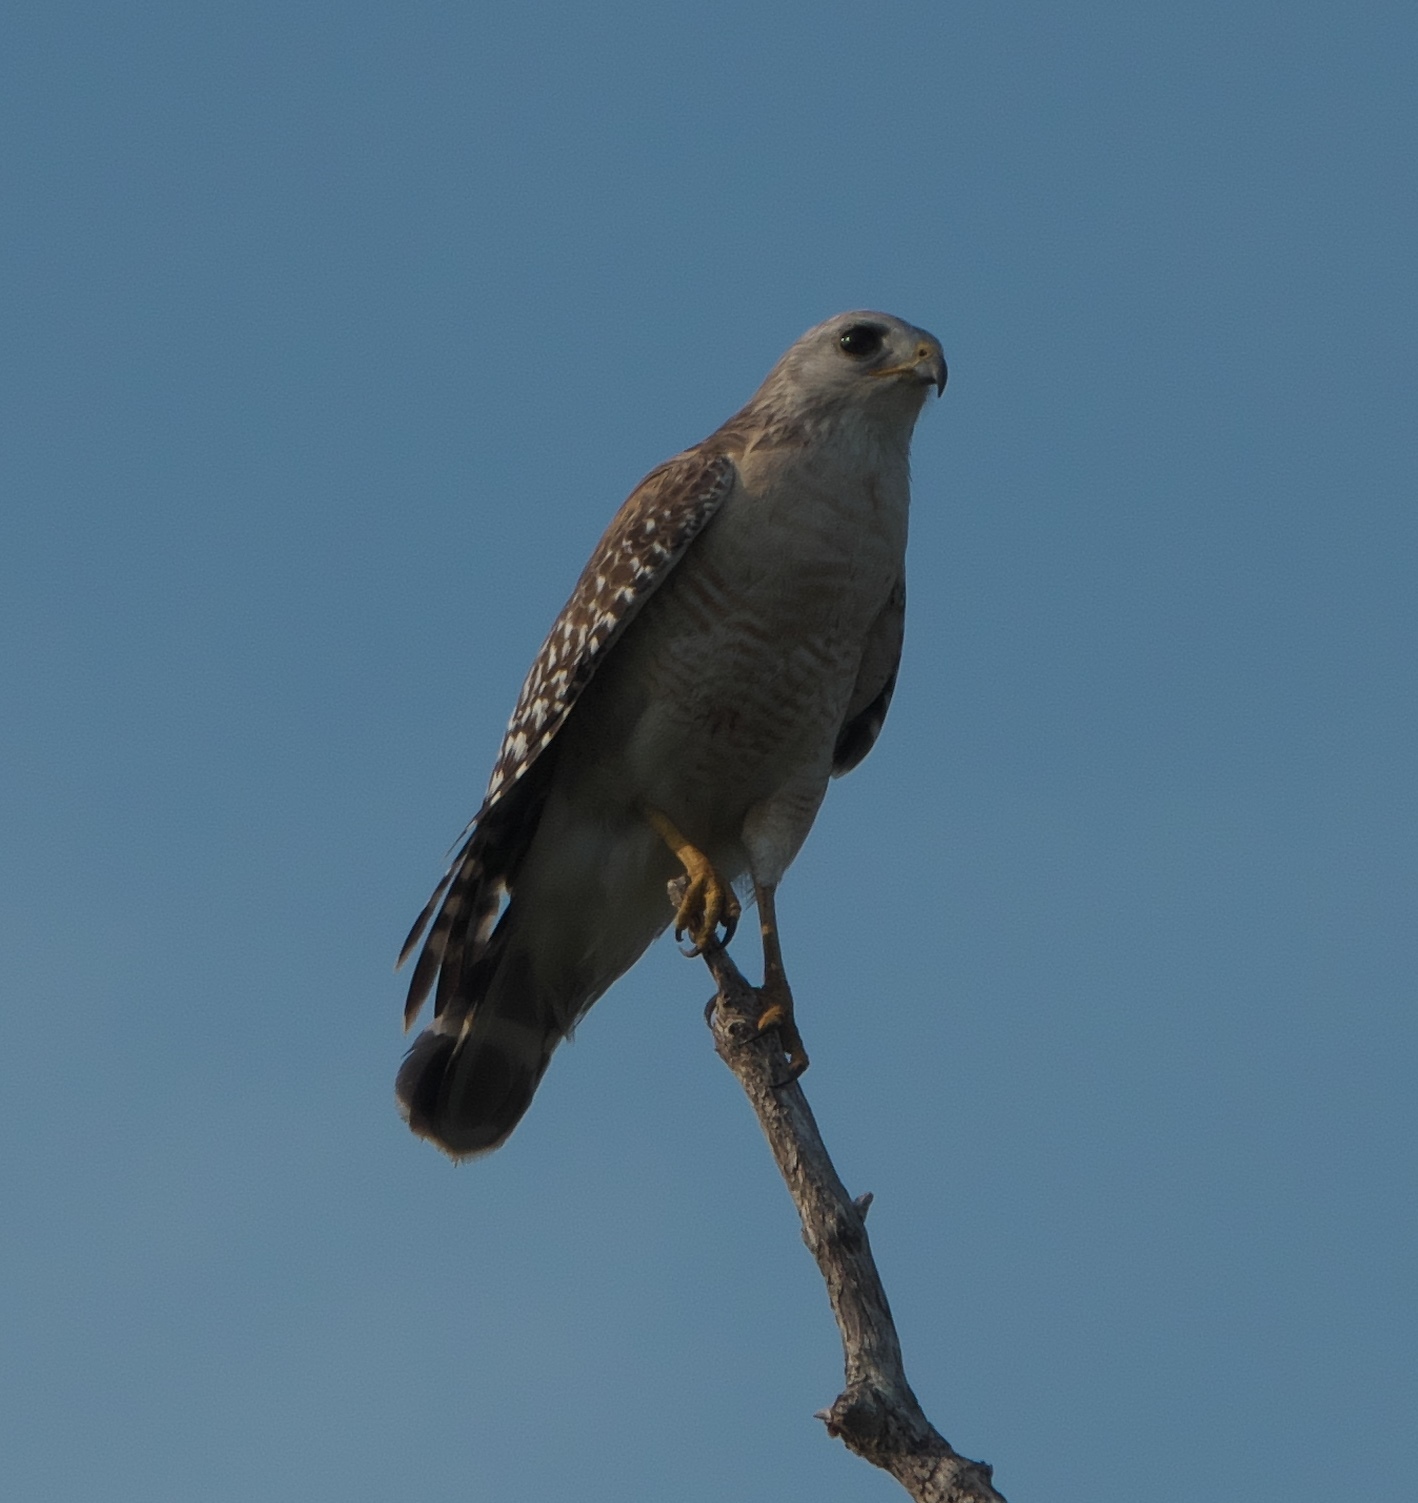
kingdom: Animalia
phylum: Chordata
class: Aves
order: Accipitriformes
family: Accipitridae
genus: Buteo
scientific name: Buteo lineatus
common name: Red-shouldered hawk
